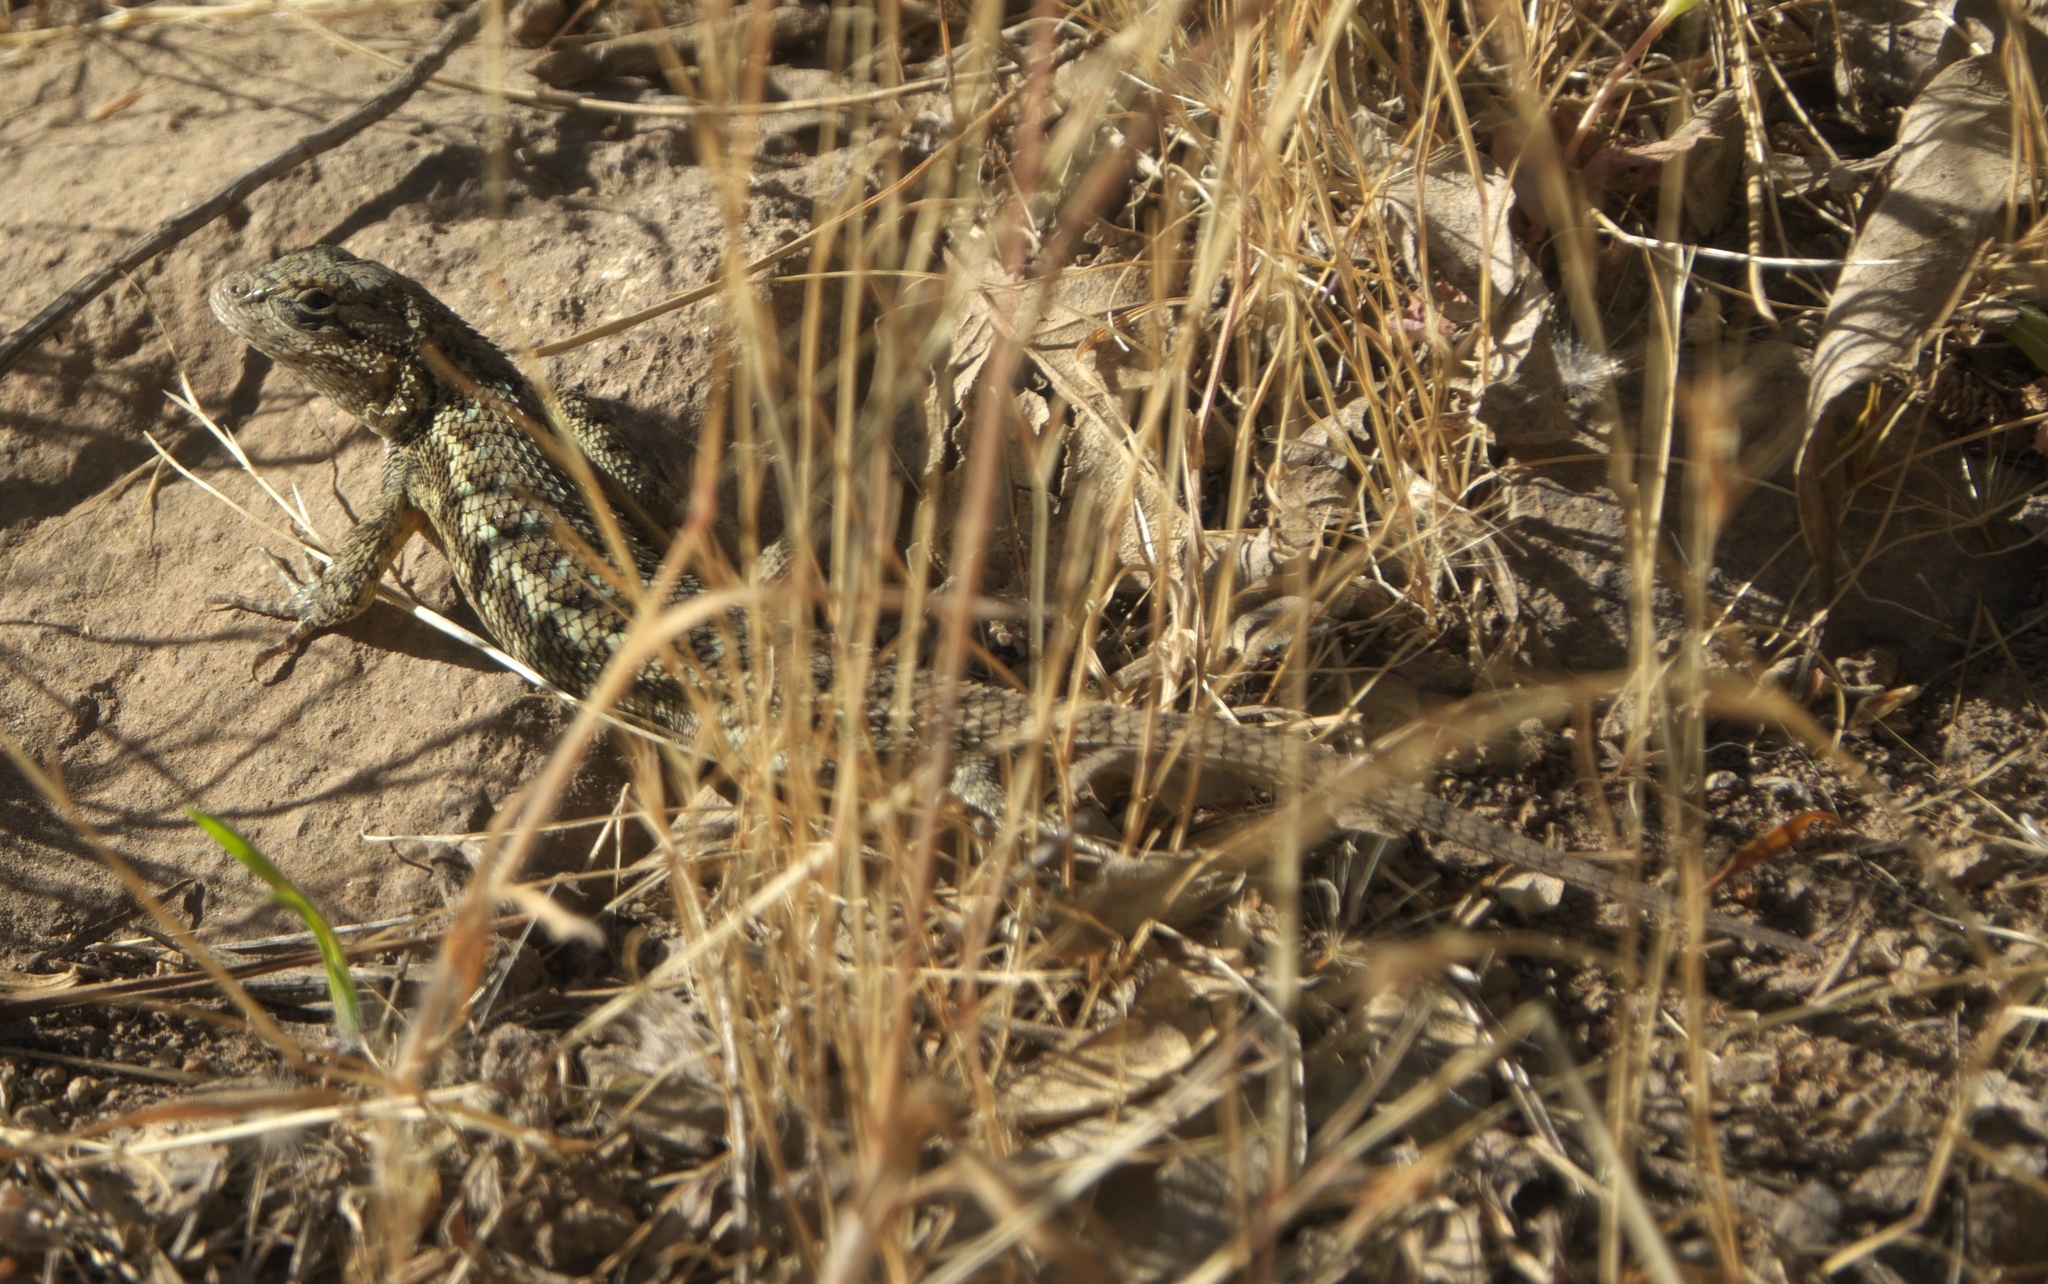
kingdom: Animalia
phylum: Chordata
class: Squamata
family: Phrynosomatidae
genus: Sceloporus
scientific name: Sceloporus occidentalis
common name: Western fence lizard
